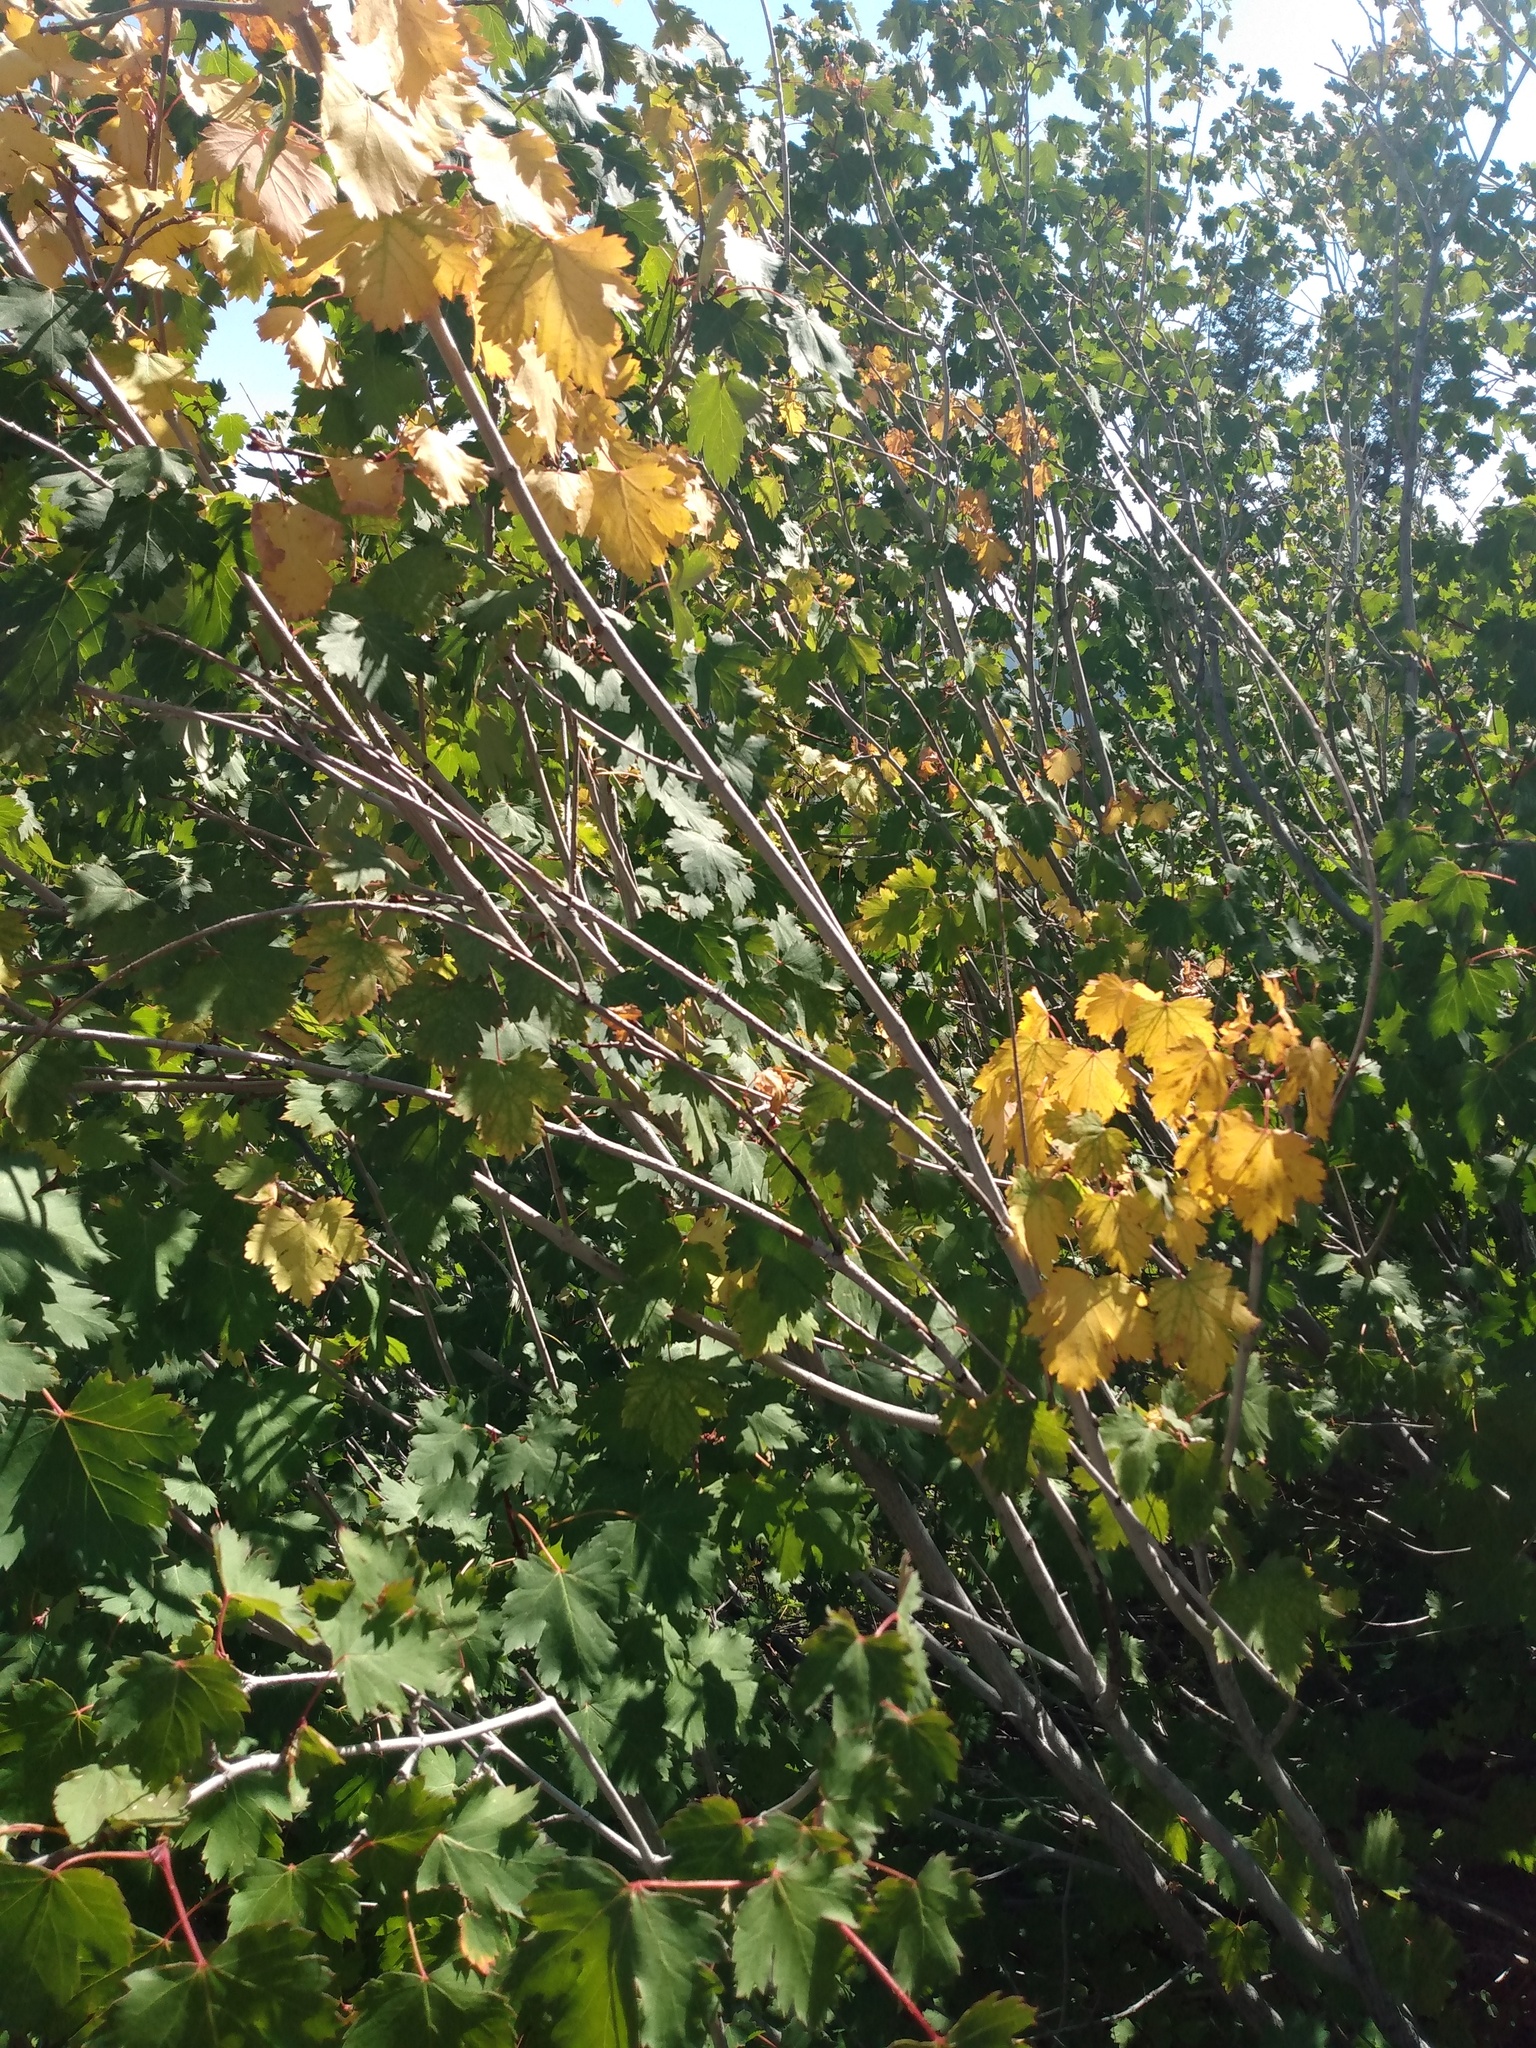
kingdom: Plantae
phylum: Tracheophyta
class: Magnoliopsida
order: Sapindales
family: Sapindaceae
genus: Acer
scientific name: Acer glabrum
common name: Rocky mountain maple
